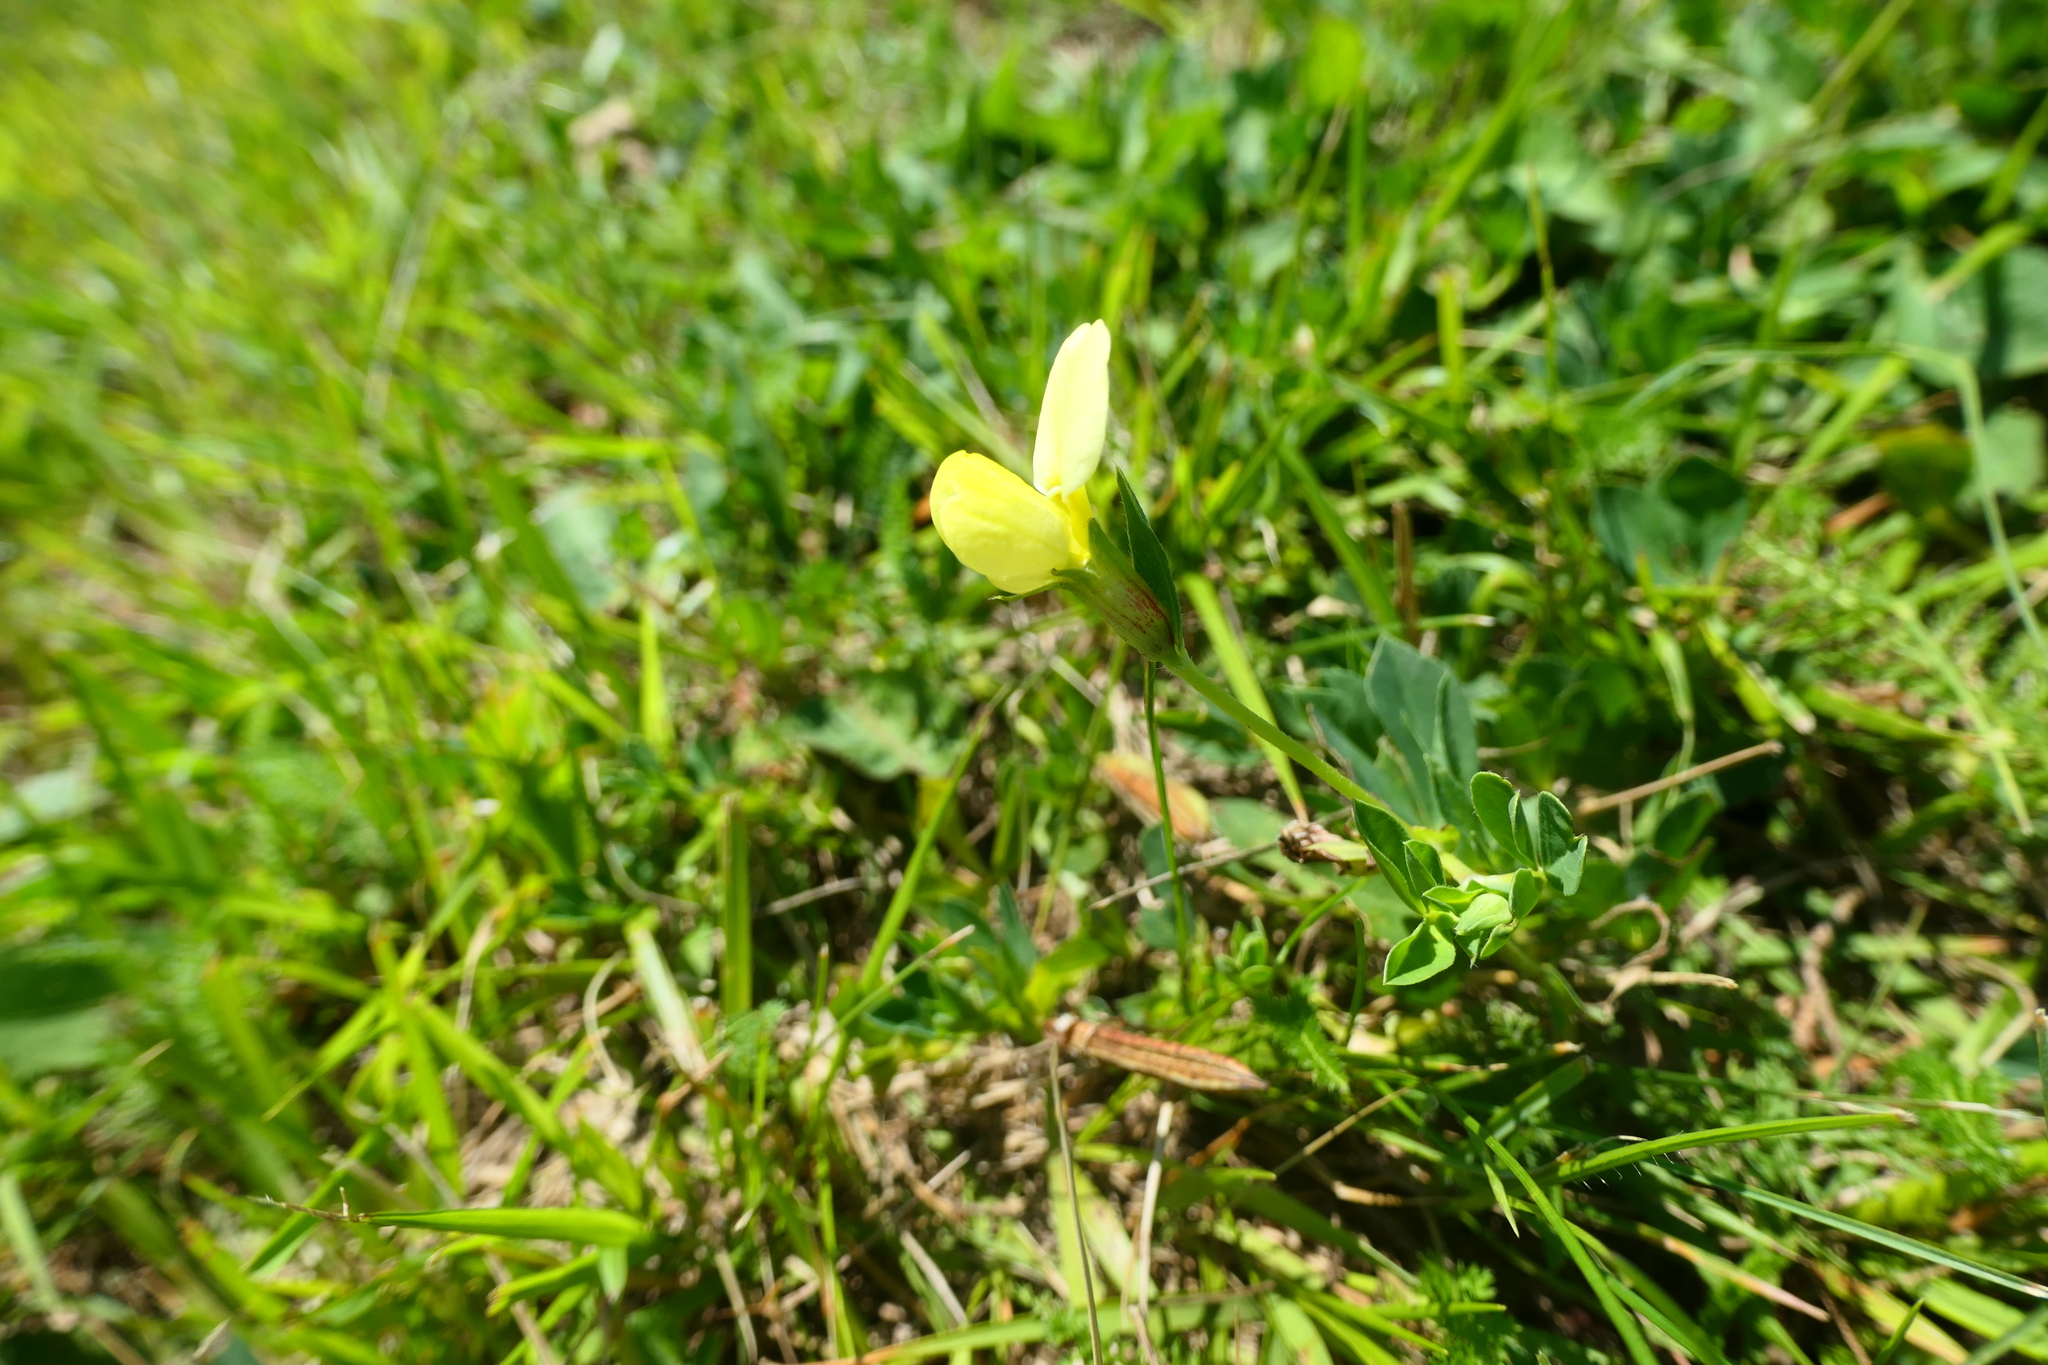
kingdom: Plantae
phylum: Tracheophyta
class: Magnoliopsida
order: Fabales
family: Fabaceae
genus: Lotus
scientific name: Lotus maritimus
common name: Dragon's-teeth
